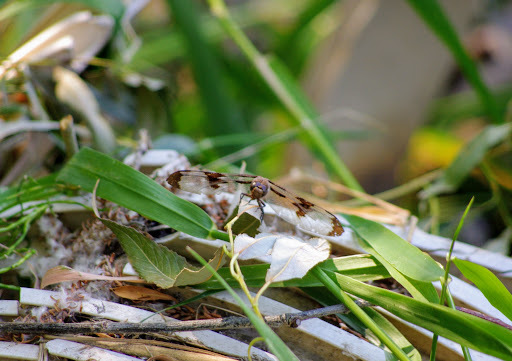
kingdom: Animalia
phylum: Arthropoda
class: Insecta
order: Odonata
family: Libellulidae
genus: Plathemis
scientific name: Plathemis lydia
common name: Common whitetail
